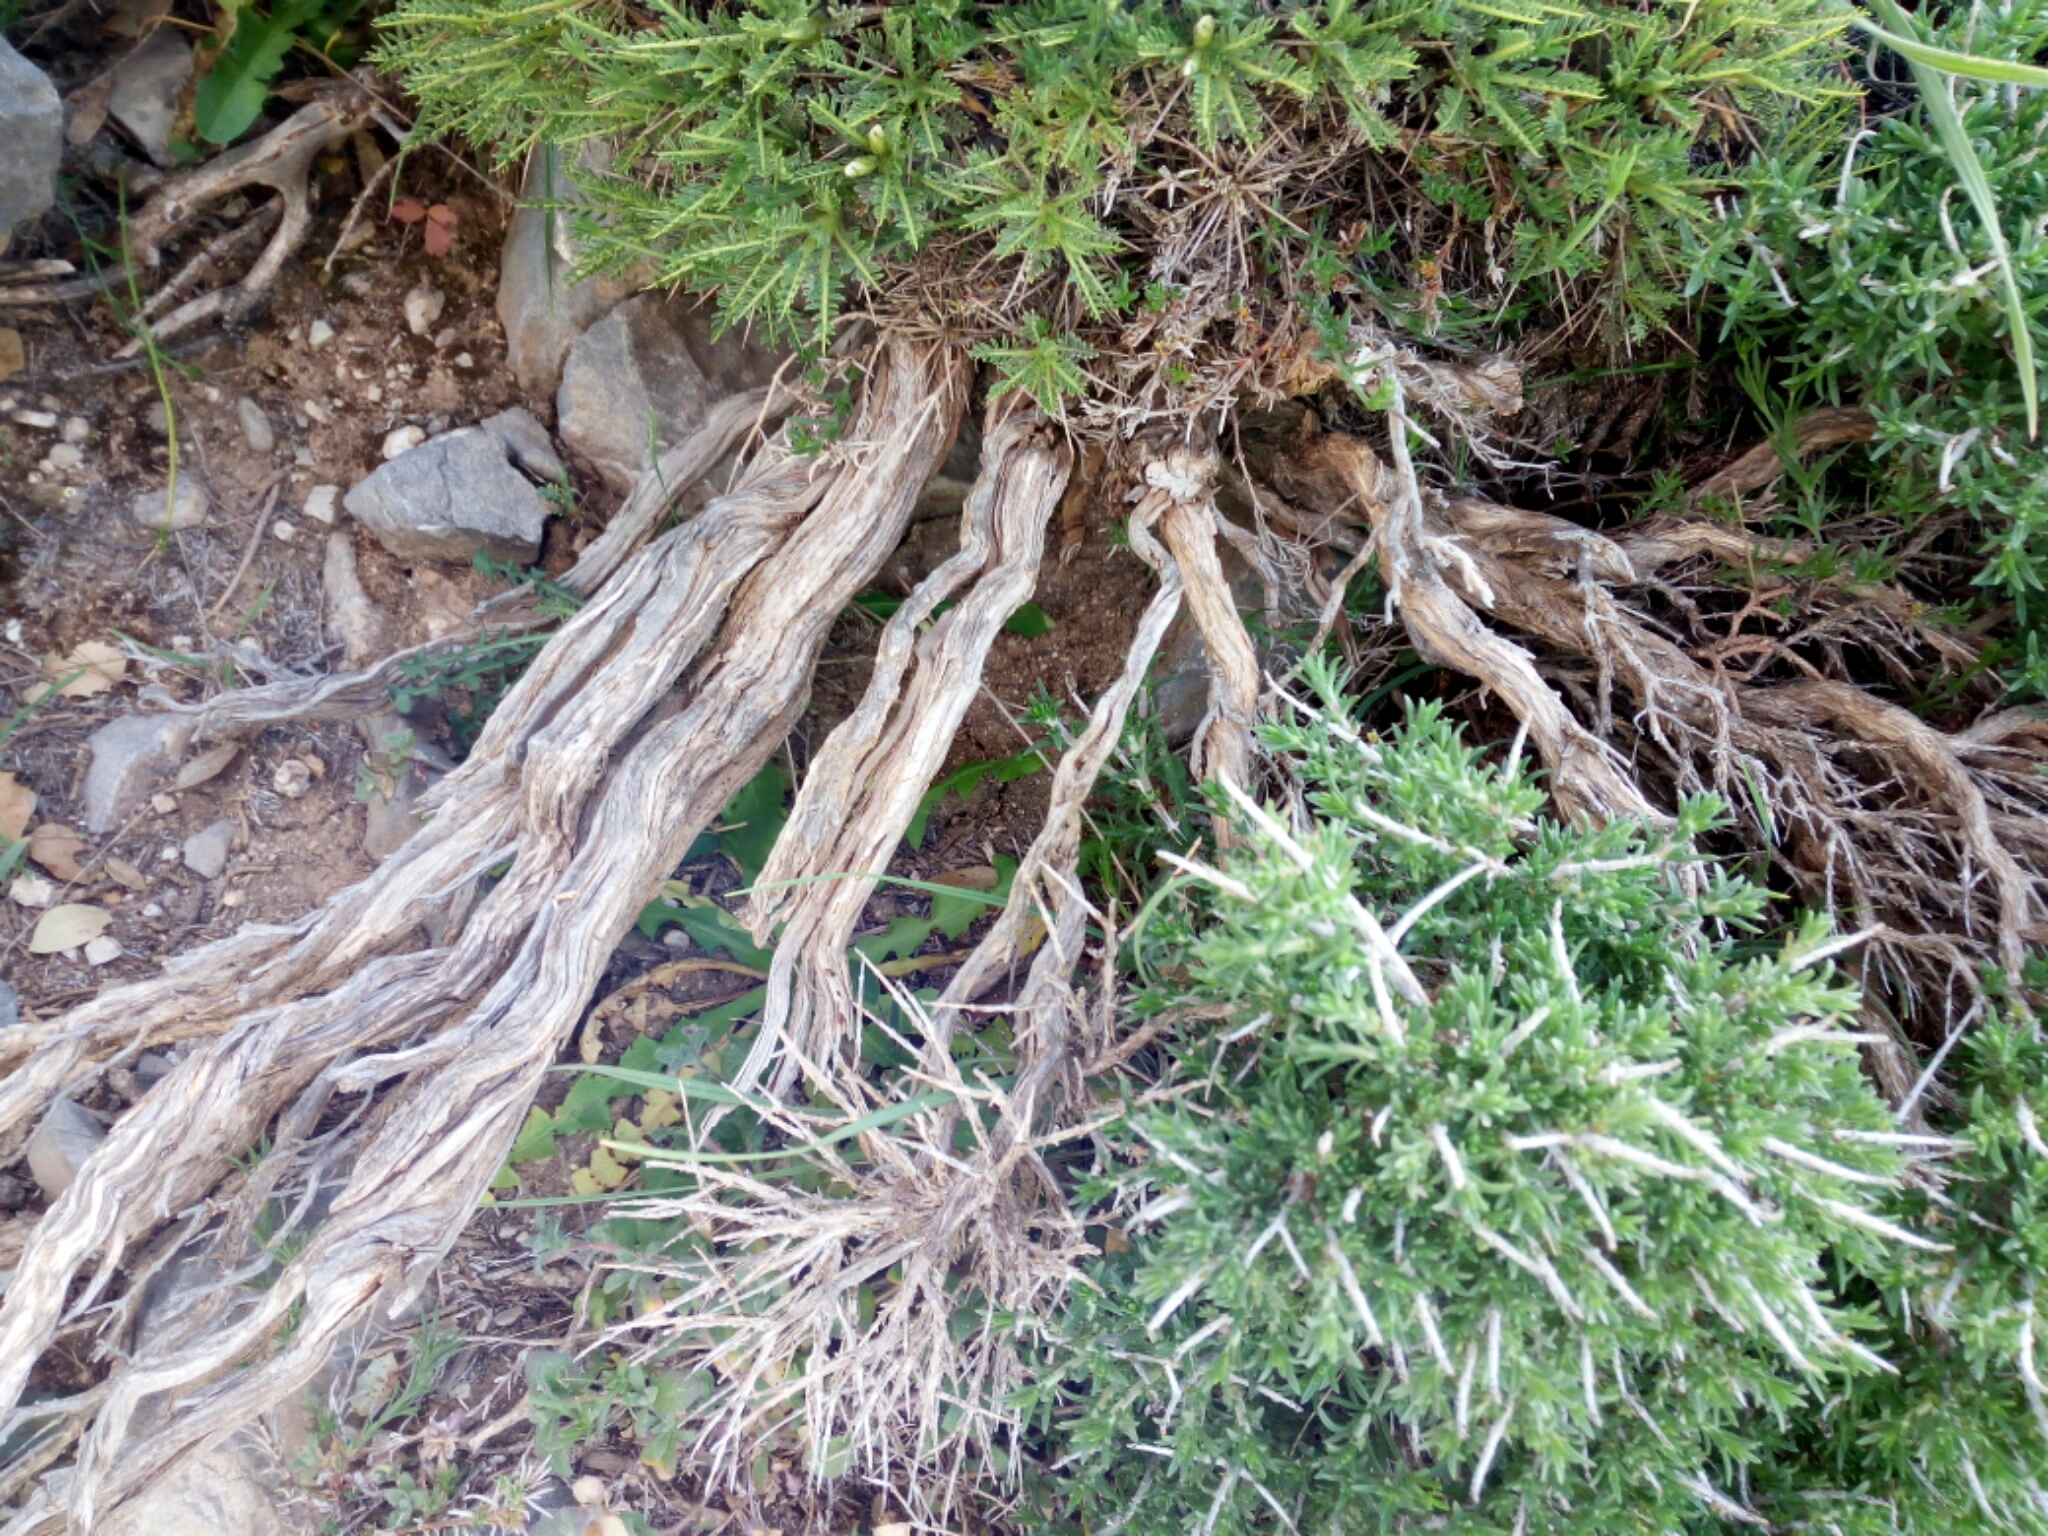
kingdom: Plantae
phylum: Tracheophyta
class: Magnoliopsida
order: Fabales
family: Fabaceae
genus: Astragalus
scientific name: Astragalus angustifolius
